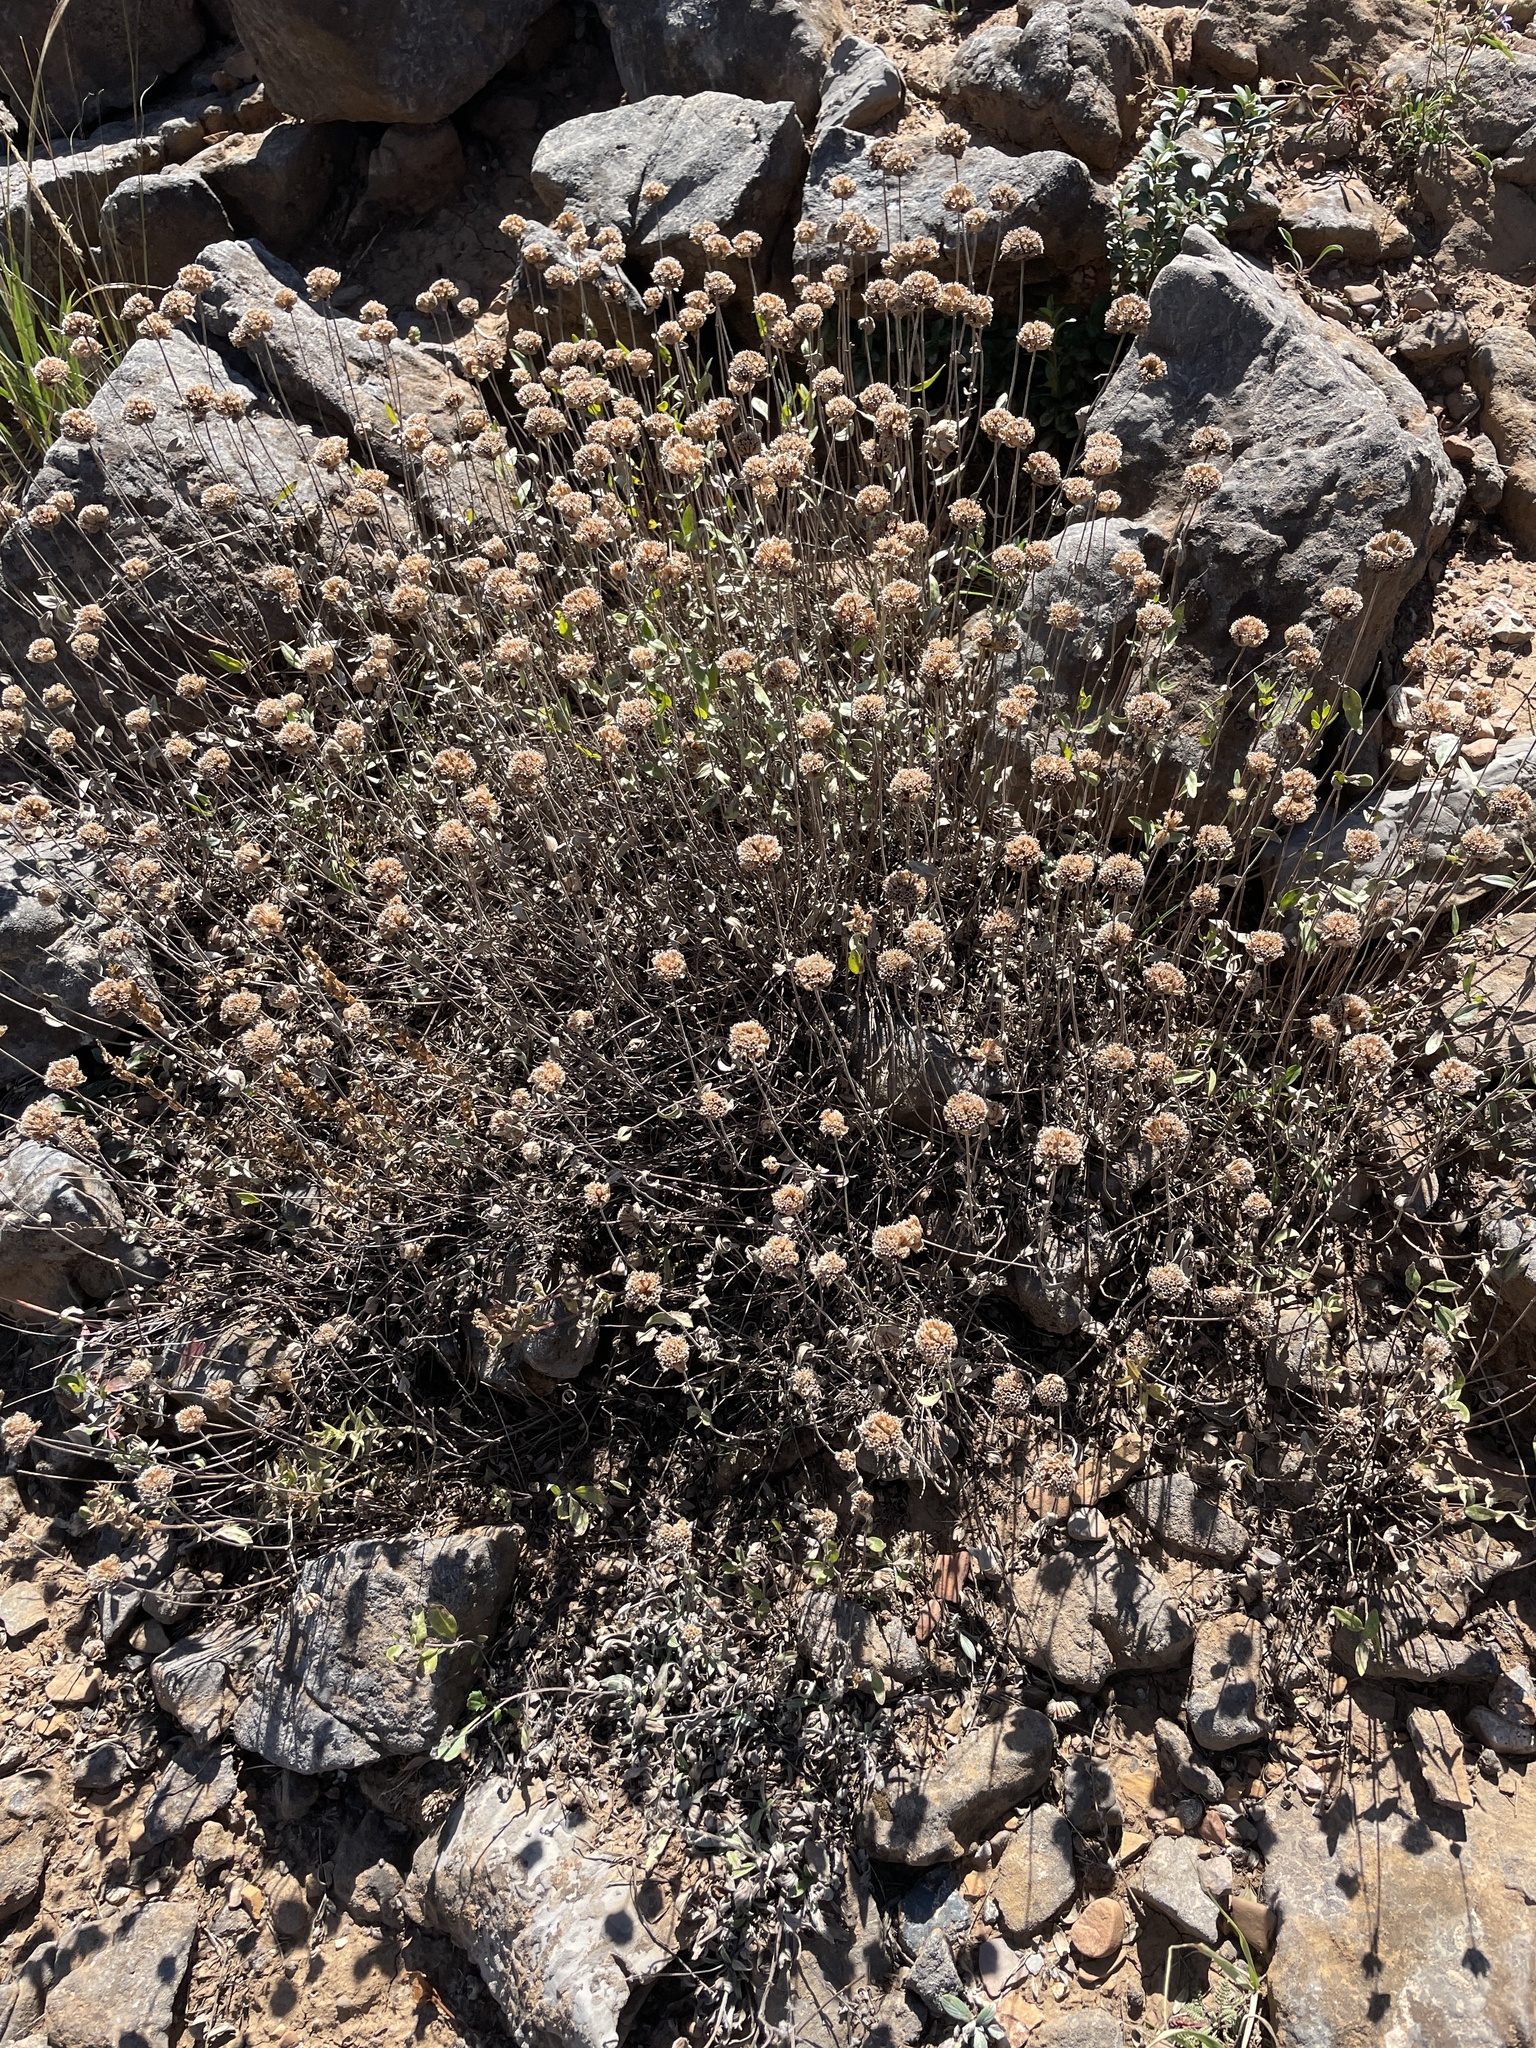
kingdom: Plantae
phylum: Tracheophyta
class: Magnoliopsida
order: Lamiales
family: Lamiaceae
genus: Monardella
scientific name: Monardella odoratissima
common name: Pacific monardella
